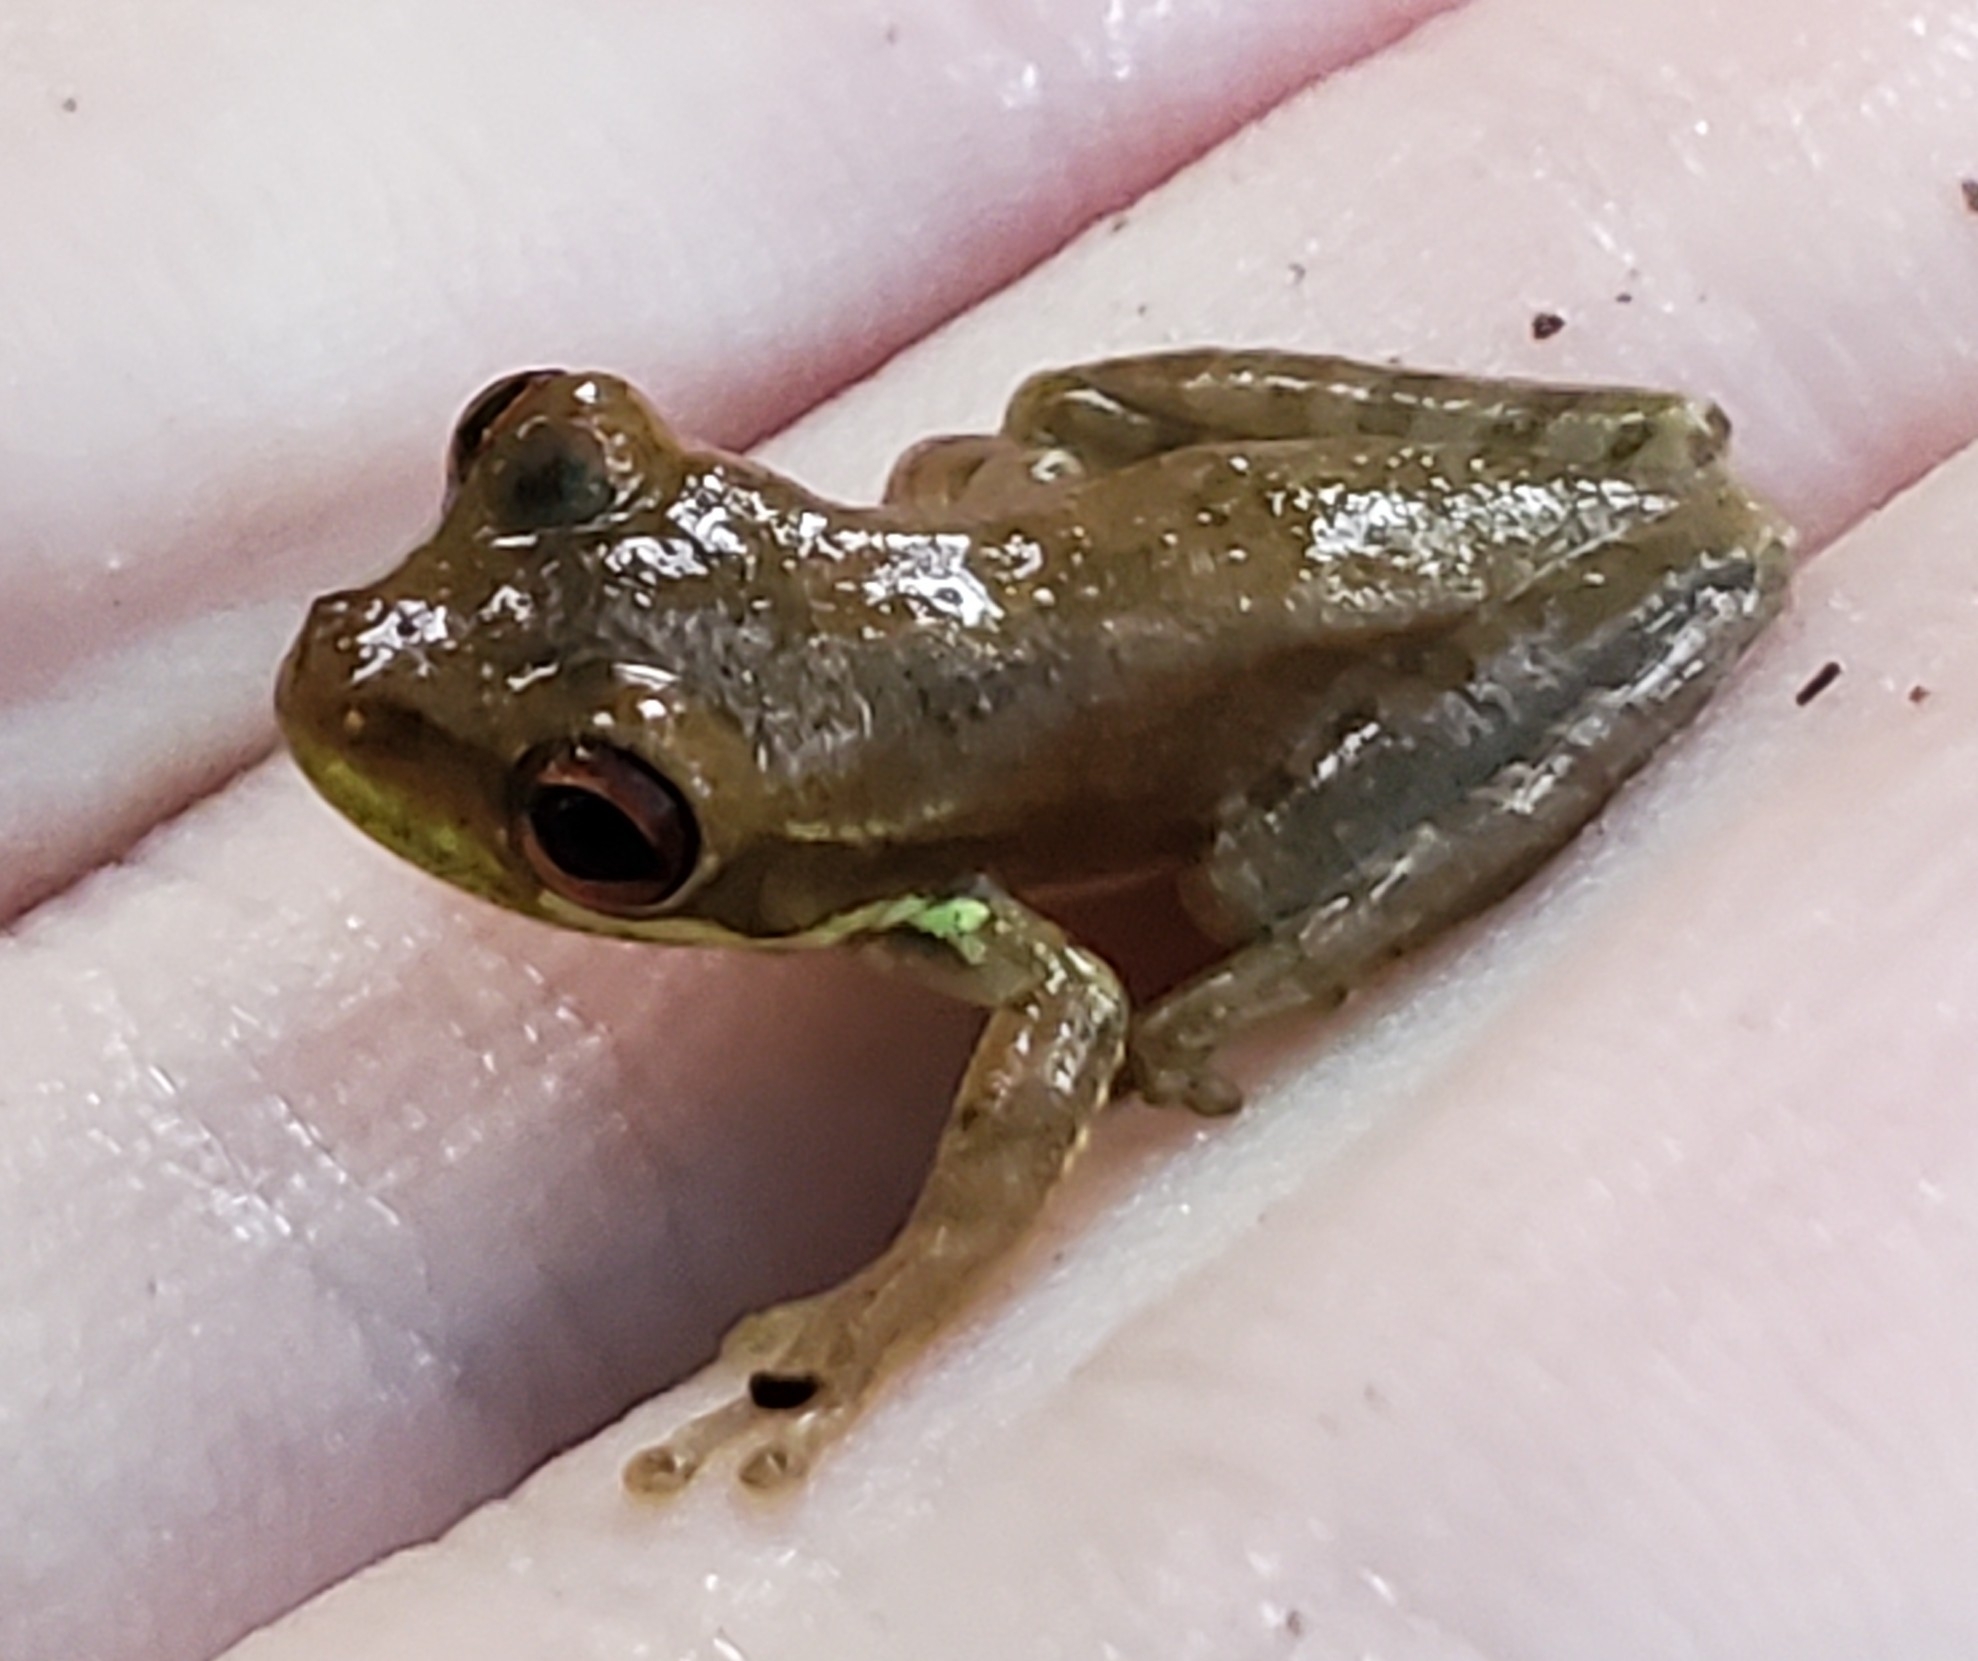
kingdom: Animalia
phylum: Chordata
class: Amphibia
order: Anura
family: Hylidae
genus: Osteopilus
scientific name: Osteopilus septentrionalis
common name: Cuban treefrog
